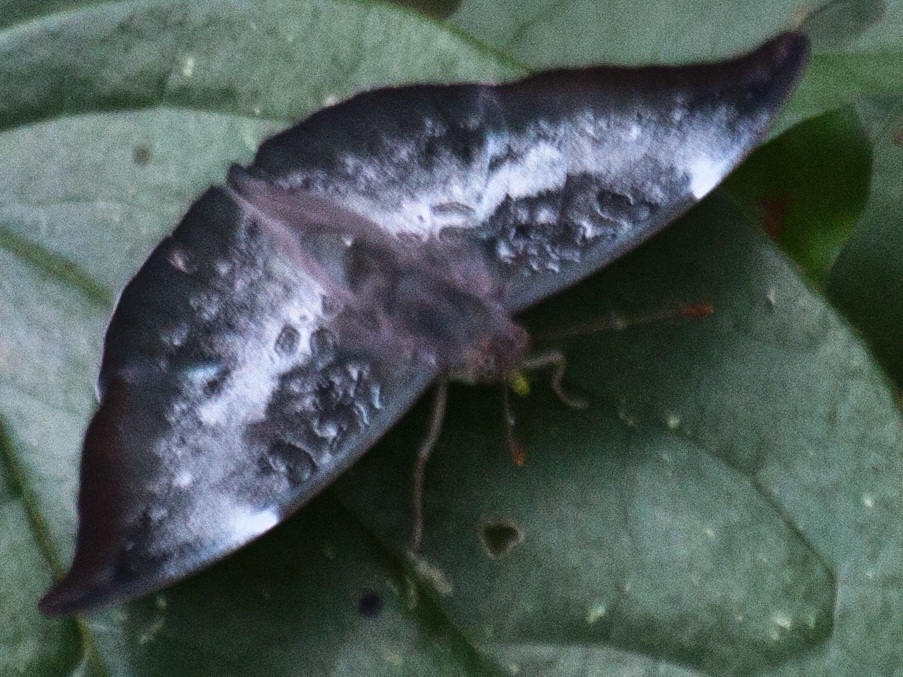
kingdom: Animalia
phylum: Arthropoda
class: Insecta
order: Lepidoptera
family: Nymphalidae
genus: Euthalia
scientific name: Euthalia anosia
